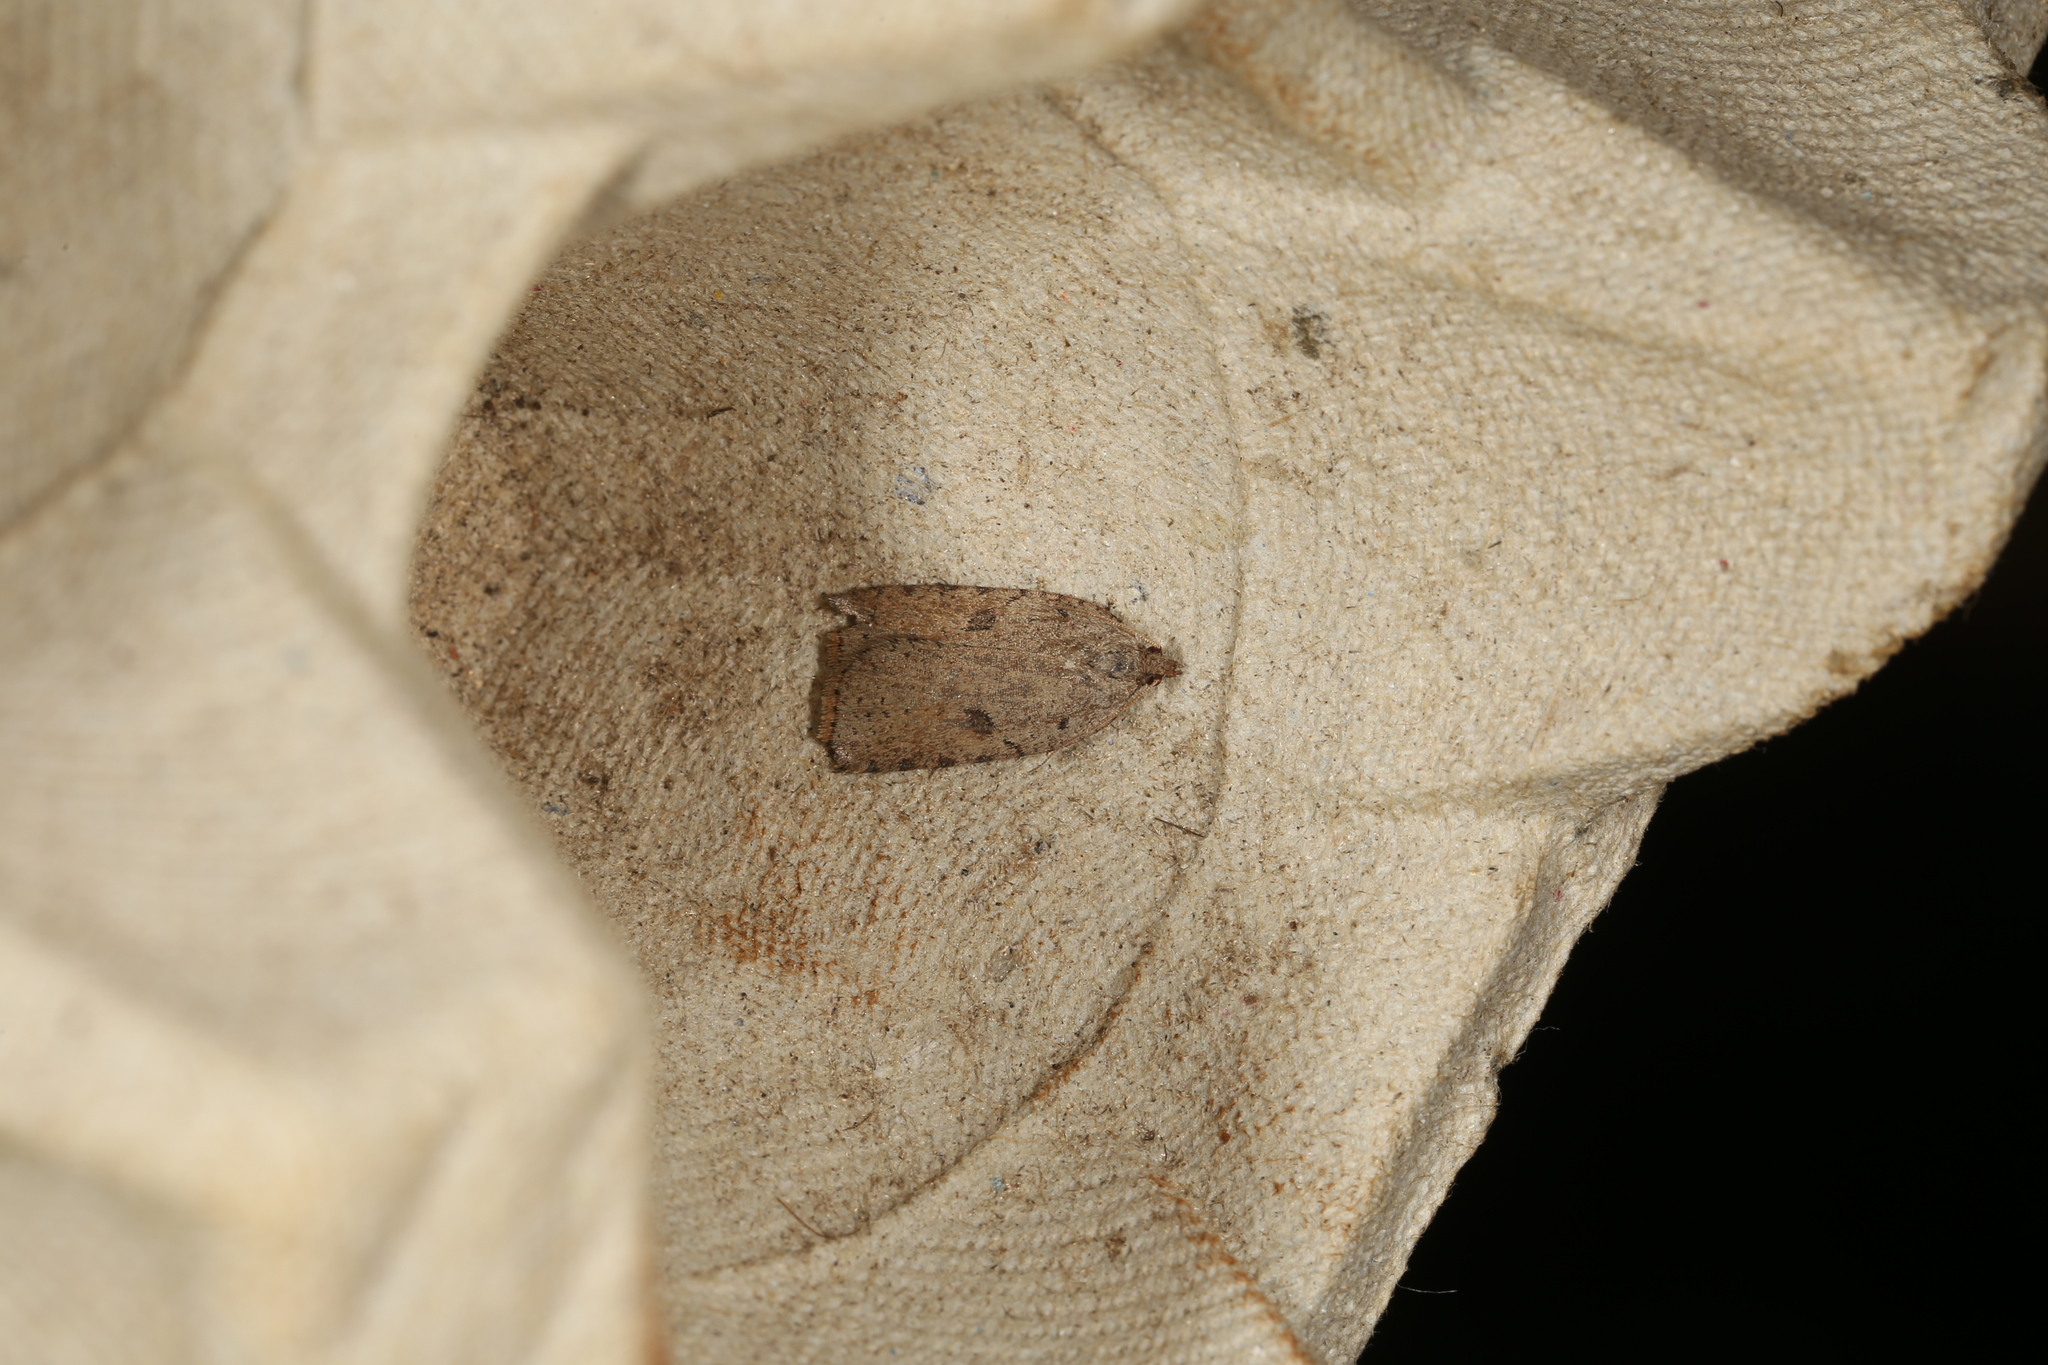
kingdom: Animalia
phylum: Arthropoda
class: Insecta
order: Lepidoptera
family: Tortricidae
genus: Meritastis
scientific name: Meritastis polygraphana
